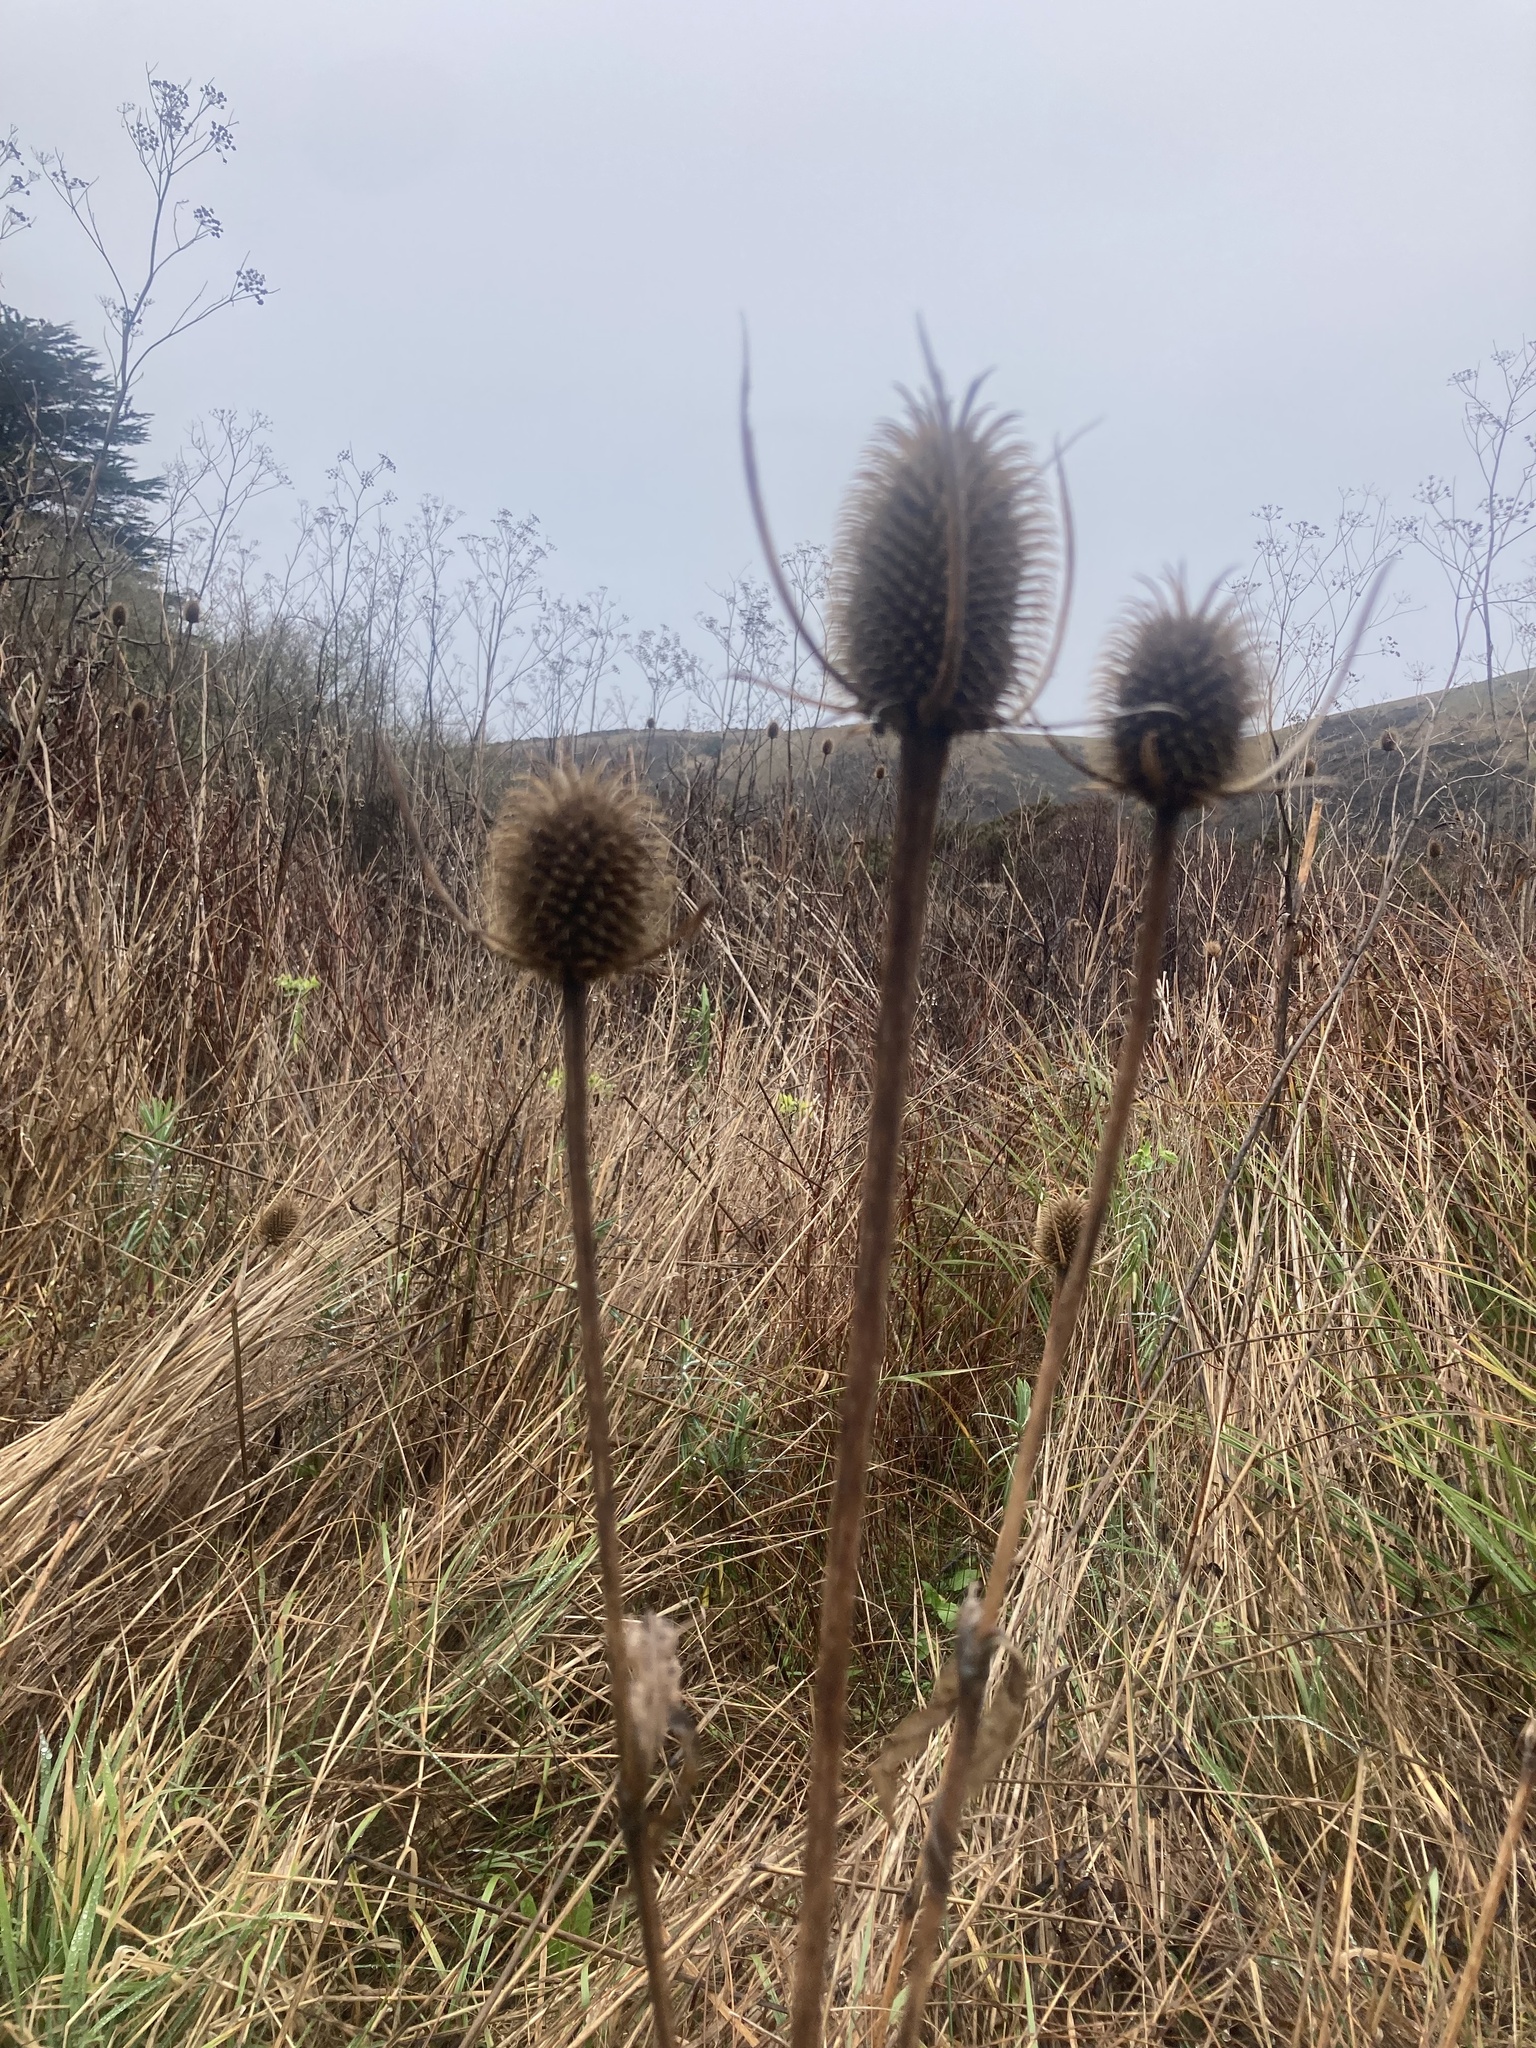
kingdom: Plantae
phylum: Tracheophyta
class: Magnoliopsida
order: Dipsacales
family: Caprifoliaceae
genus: Dipsacus
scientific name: Dipsacus sativus
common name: Fuller's teasel
